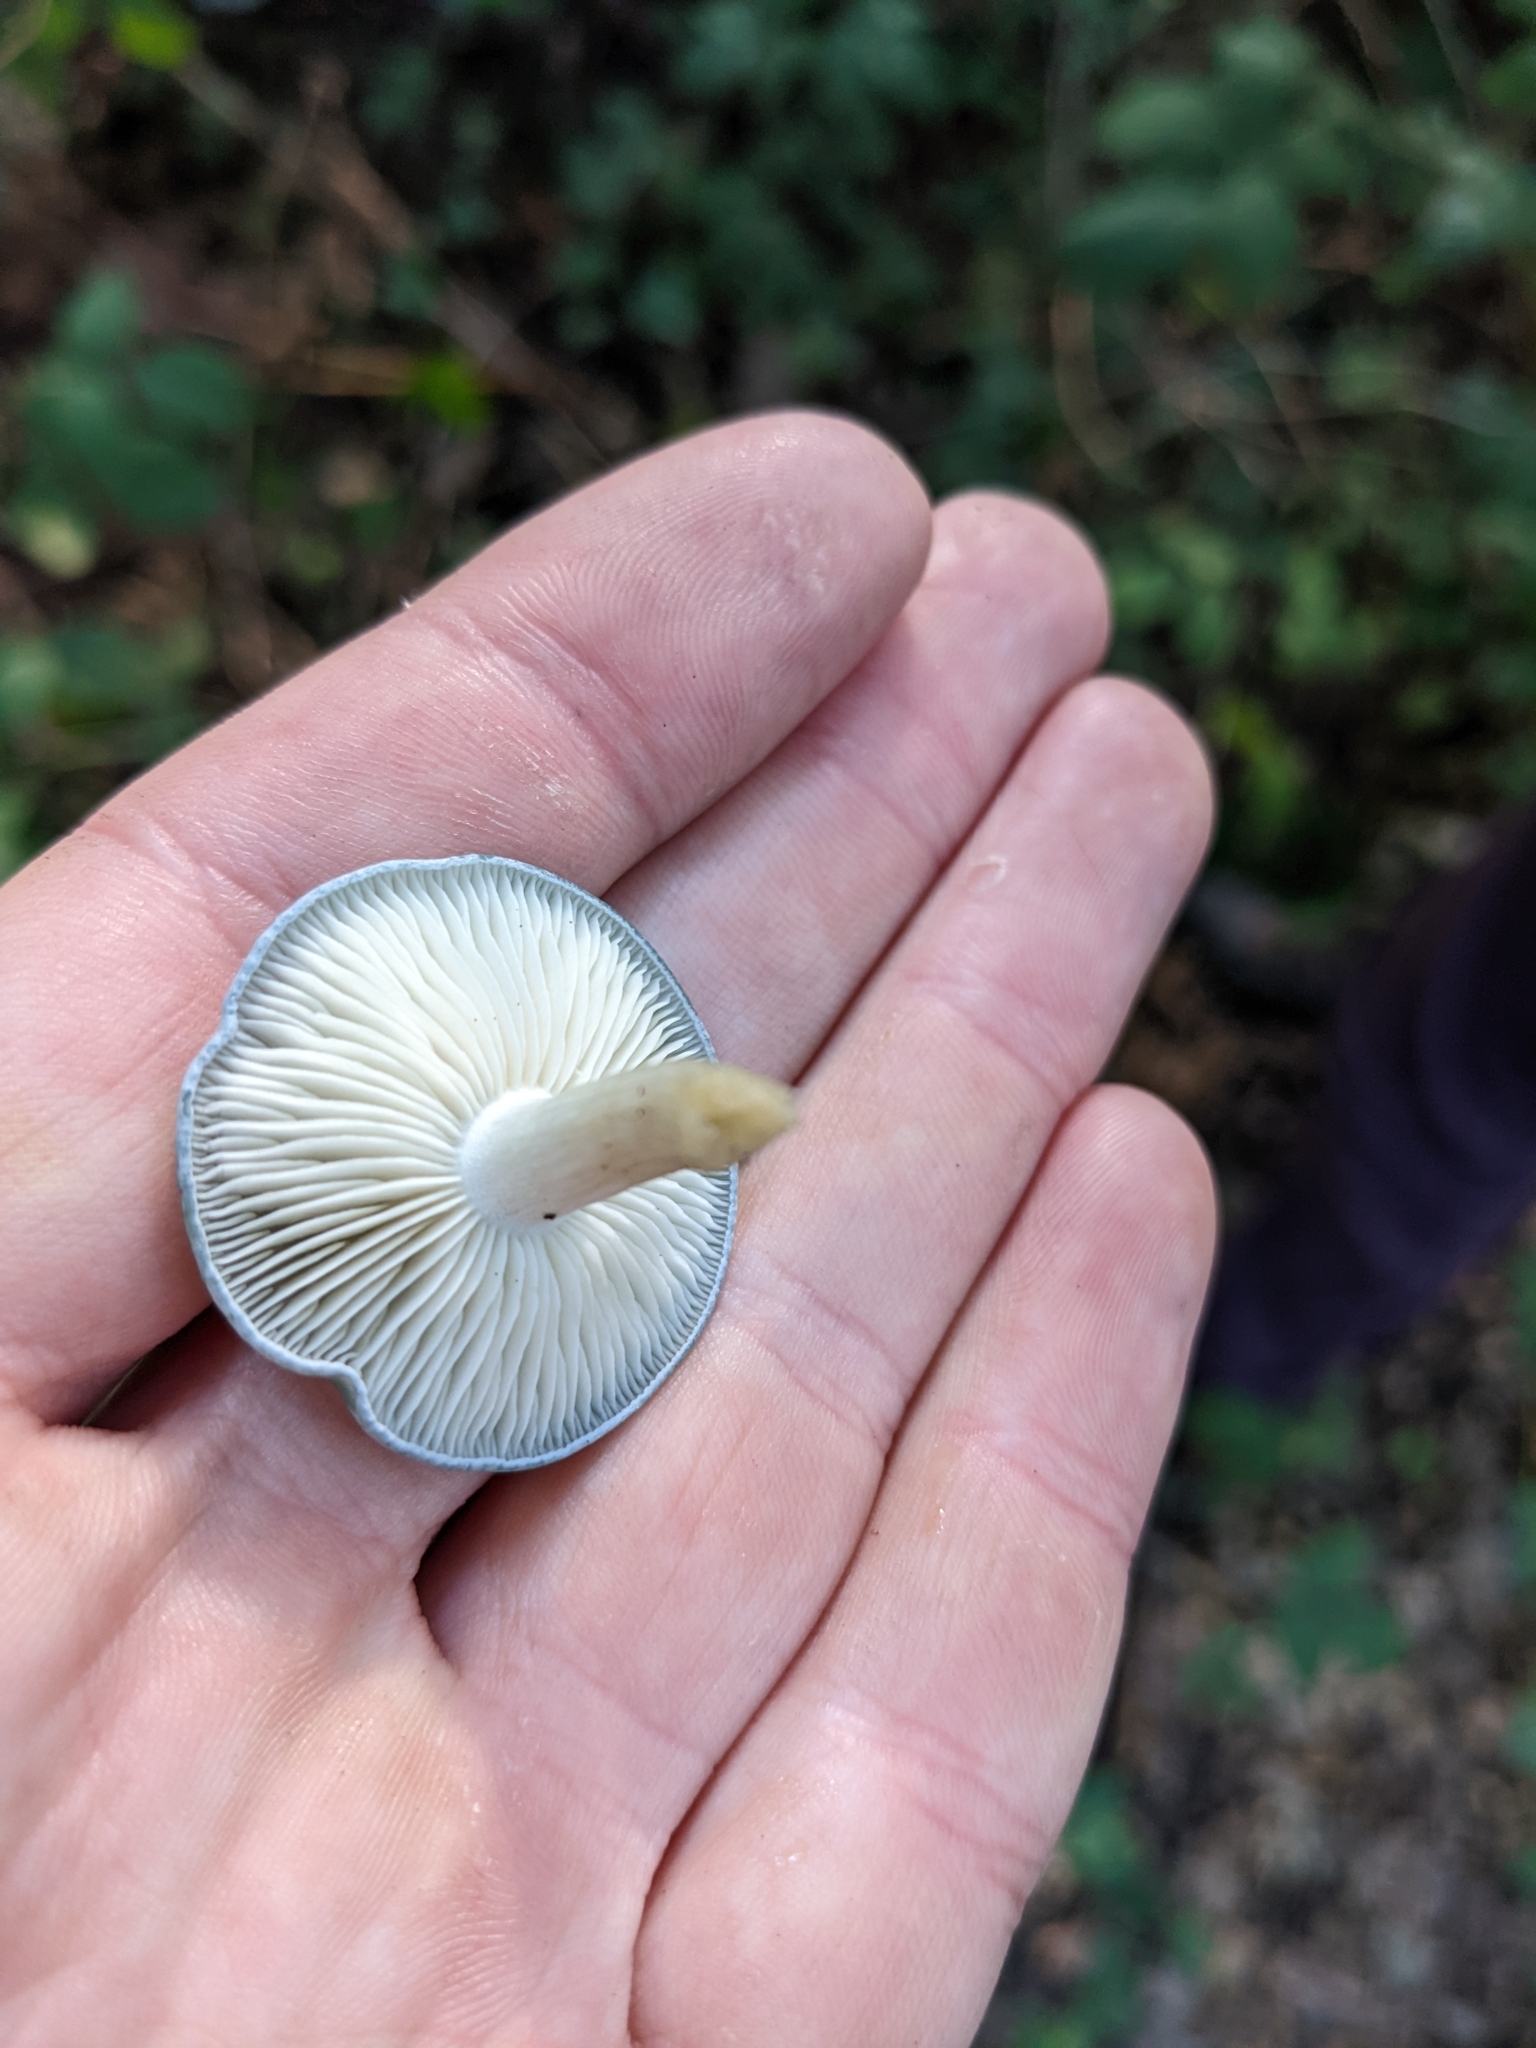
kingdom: Fungi
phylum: Basidiomycota
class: Agaricomycetes
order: Agaricales
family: Tricholomataceae
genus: Collybia
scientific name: Collybia
